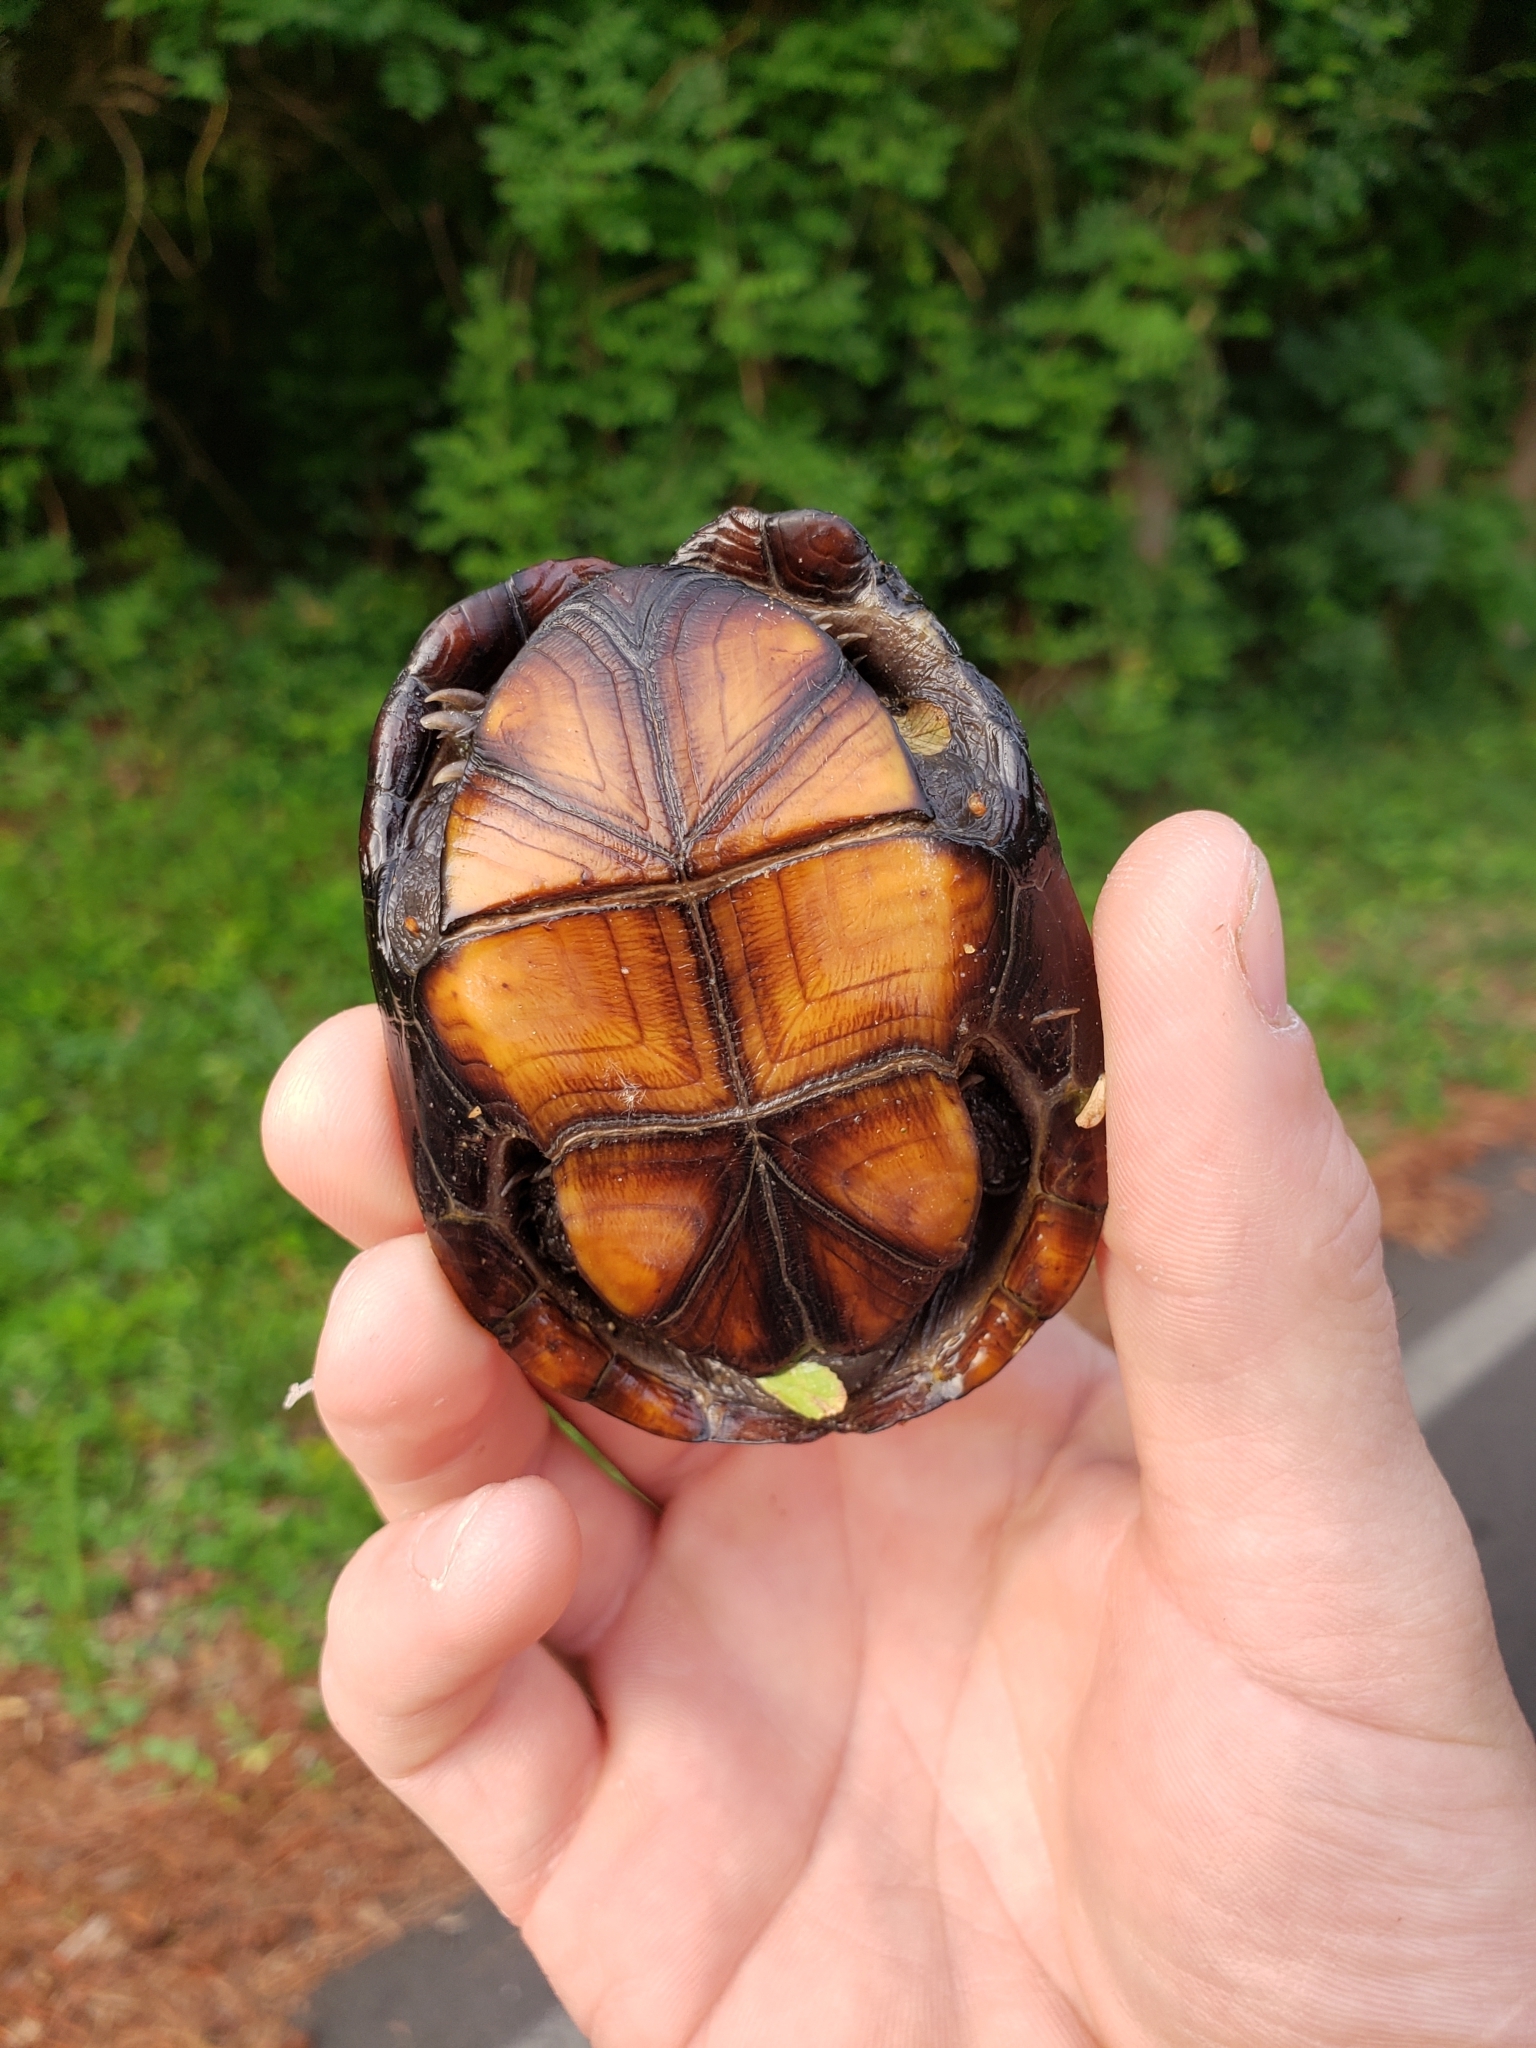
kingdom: Animalia
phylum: Chordata
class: Testudines
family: Kinosternidae
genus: Kinosternon
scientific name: Kinosternon subrubrum
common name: Eastern mud turtle
